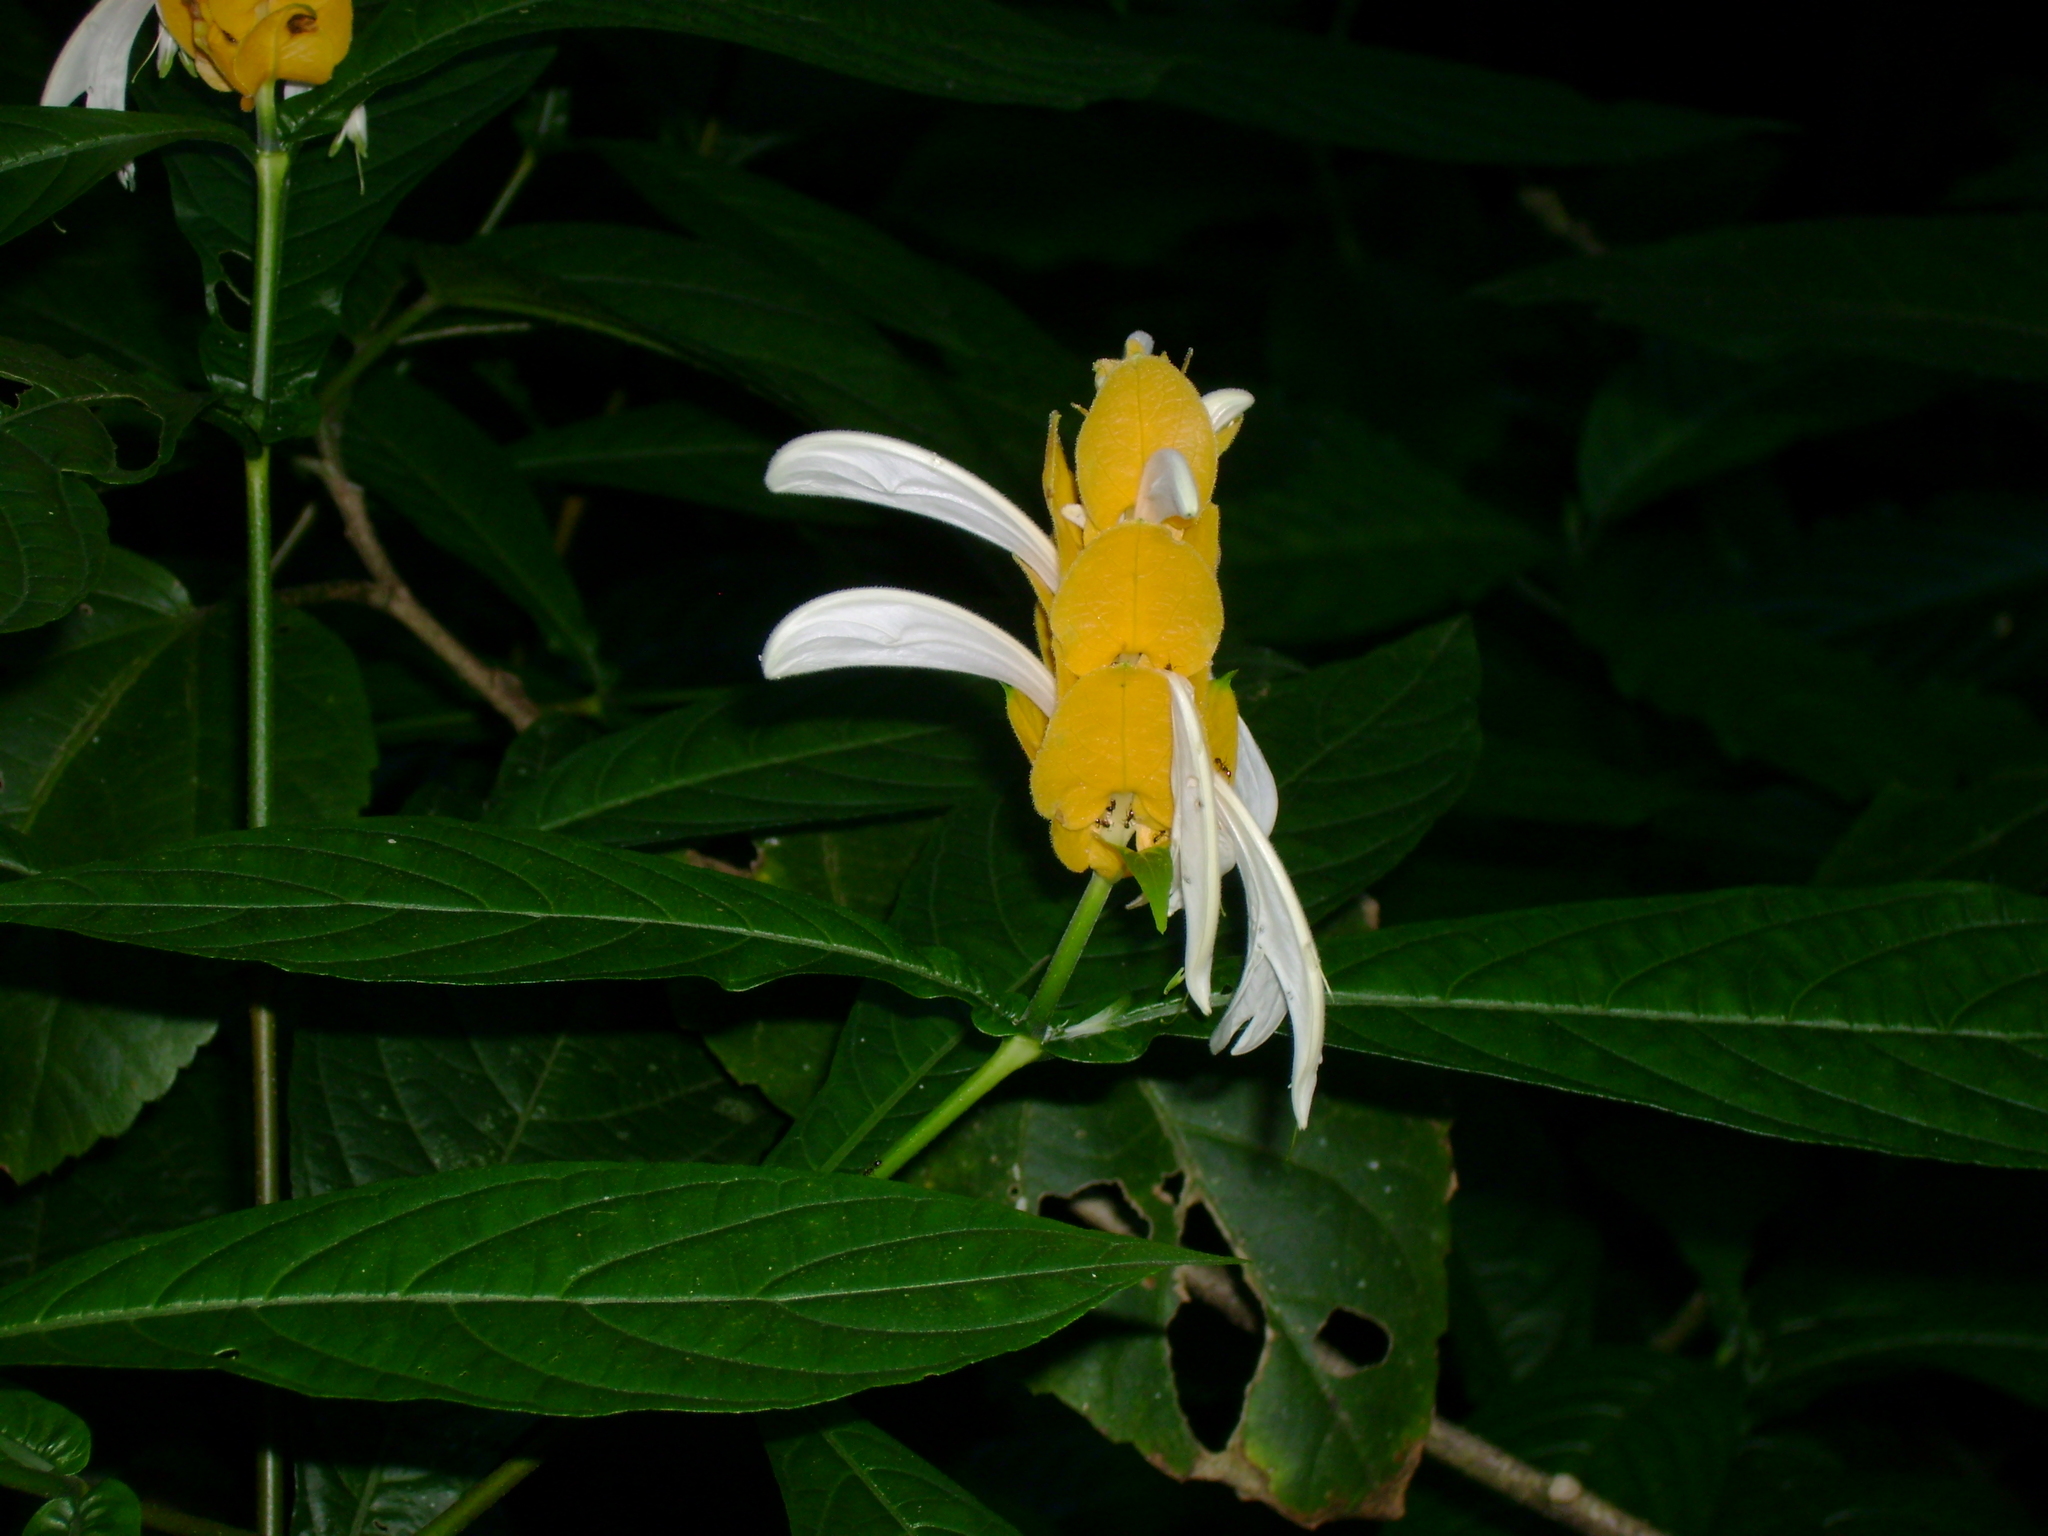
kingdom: Plantae
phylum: Tracheophyta
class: Magnoliopsida
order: Lamiales
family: Acanthaceae
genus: Pachystachys
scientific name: Pachystachys lutea
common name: Golden shrimp-plant
